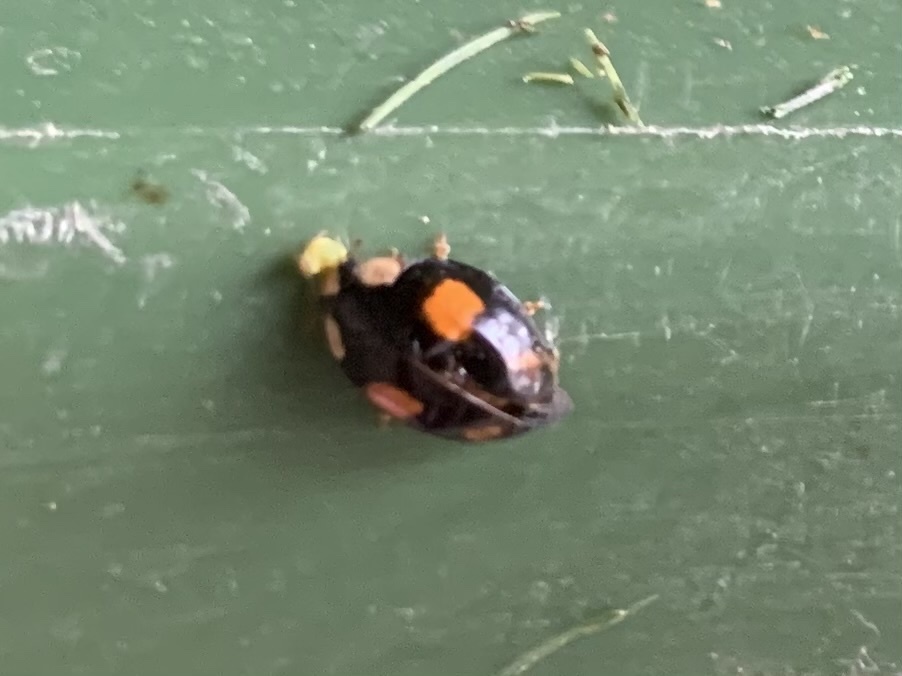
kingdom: Animalia
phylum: Arthropoda
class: Insecta
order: Coleoptera
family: Coccinellidae
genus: Harmonia
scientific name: Harmonia axyridis
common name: Harlequin ladybird
